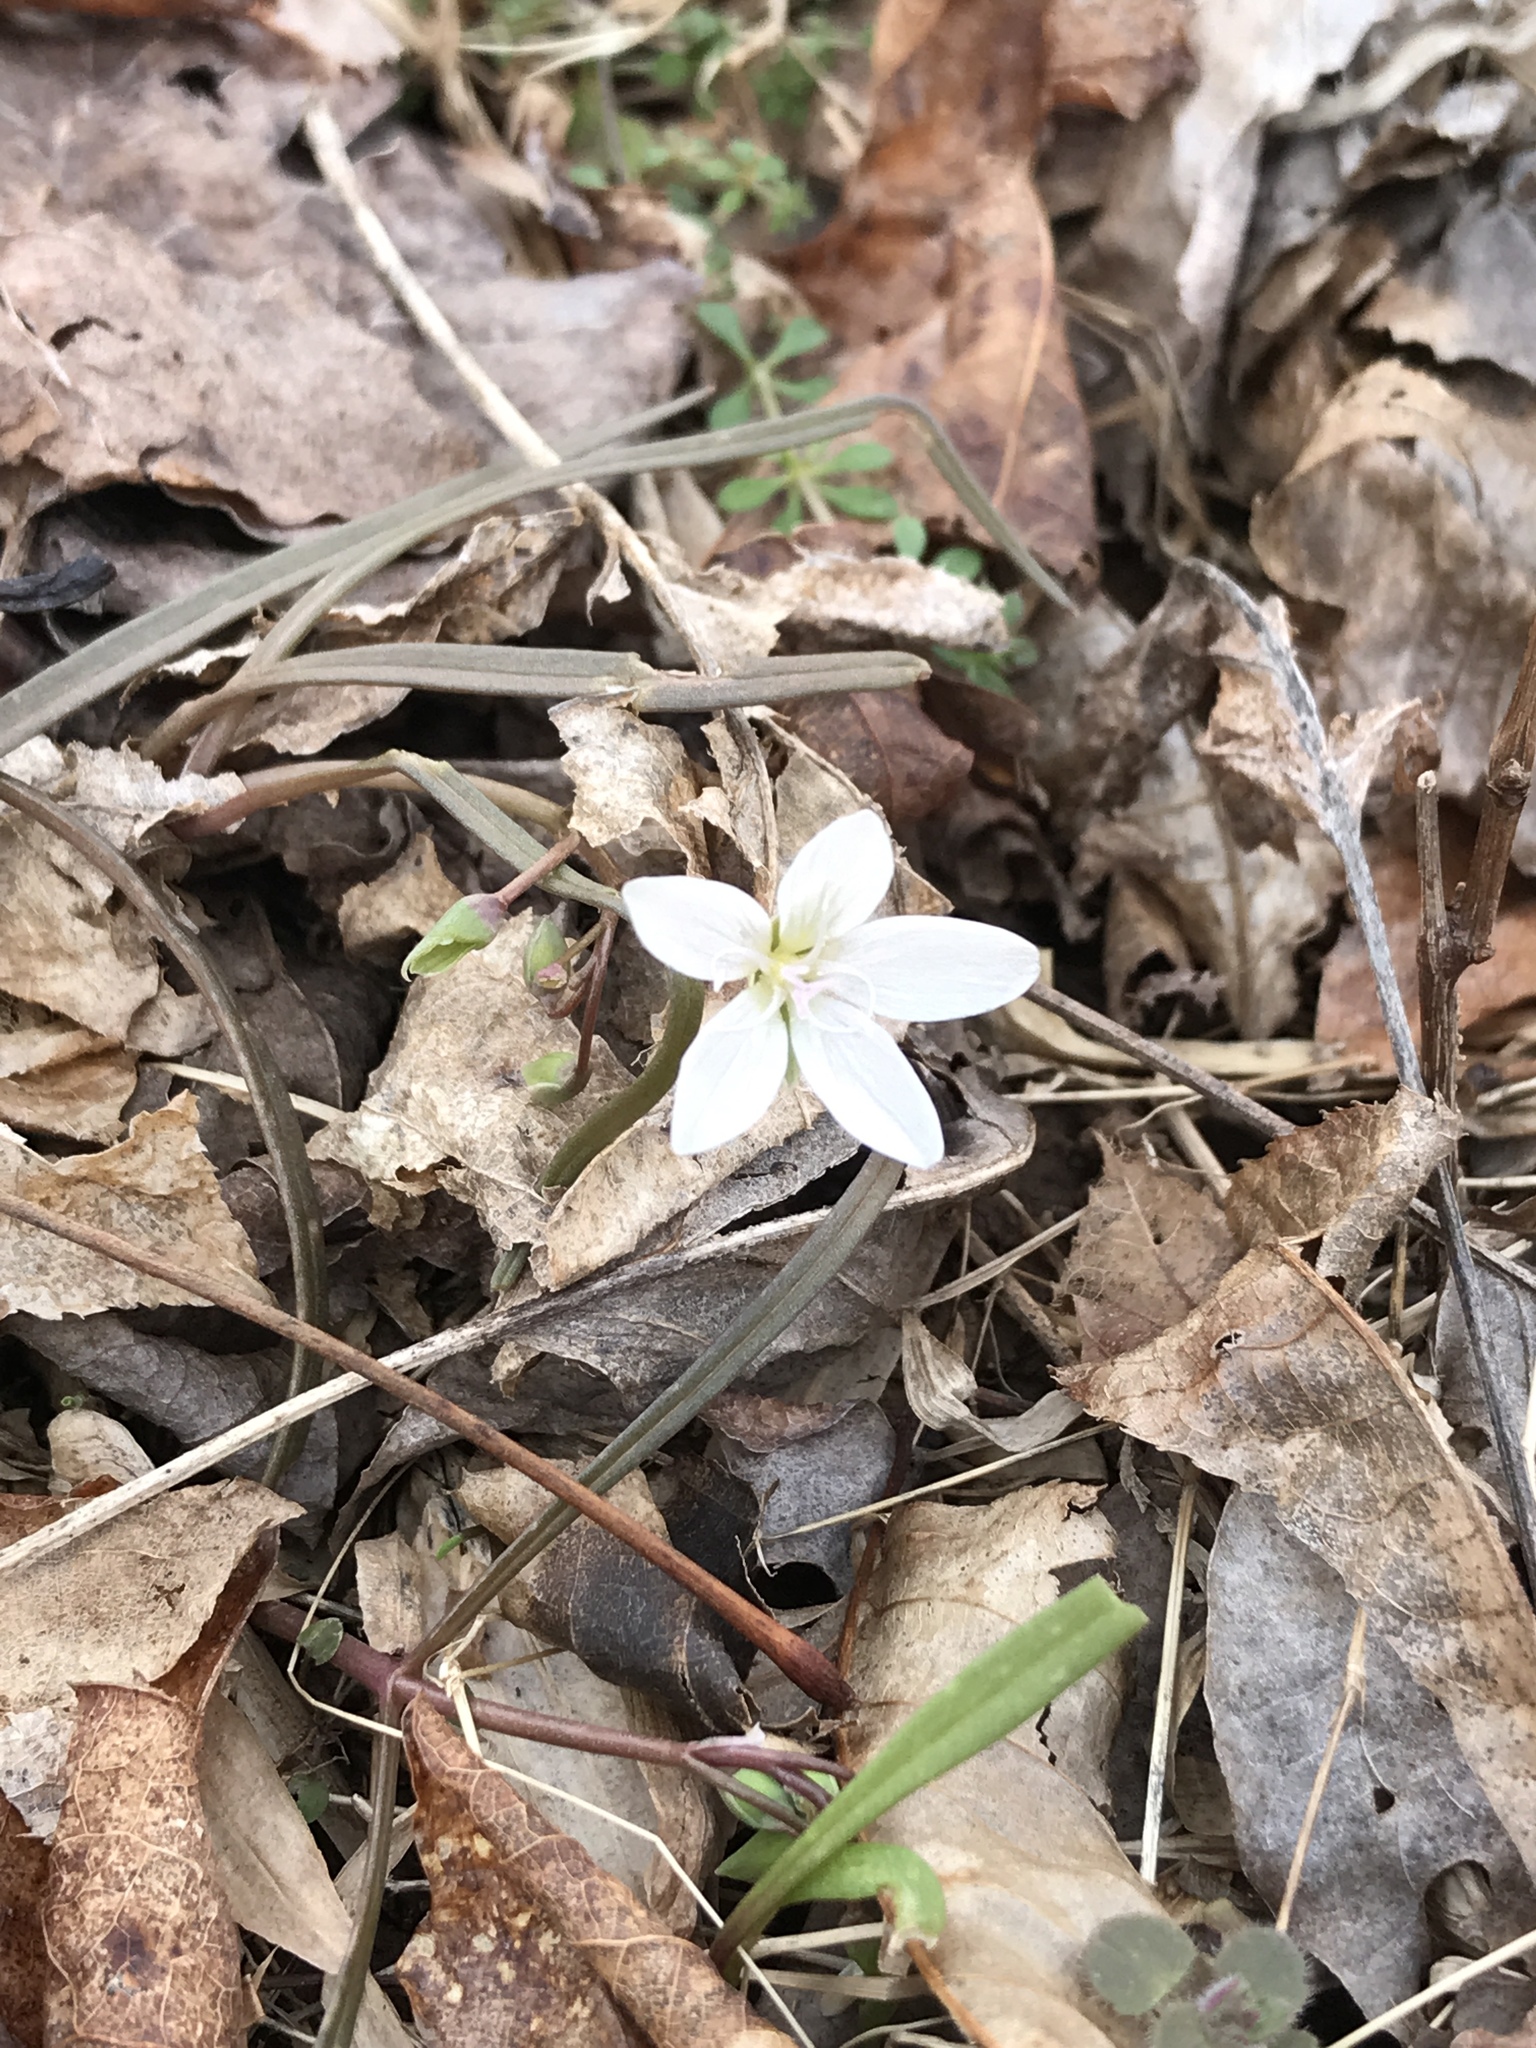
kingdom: Plantae
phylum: Tracheophyta
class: Magnoliopsida
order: Caryophyllales
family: Montiaceae
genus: Claytonia
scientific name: Claytonia virginica
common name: Virginia springbeauty
